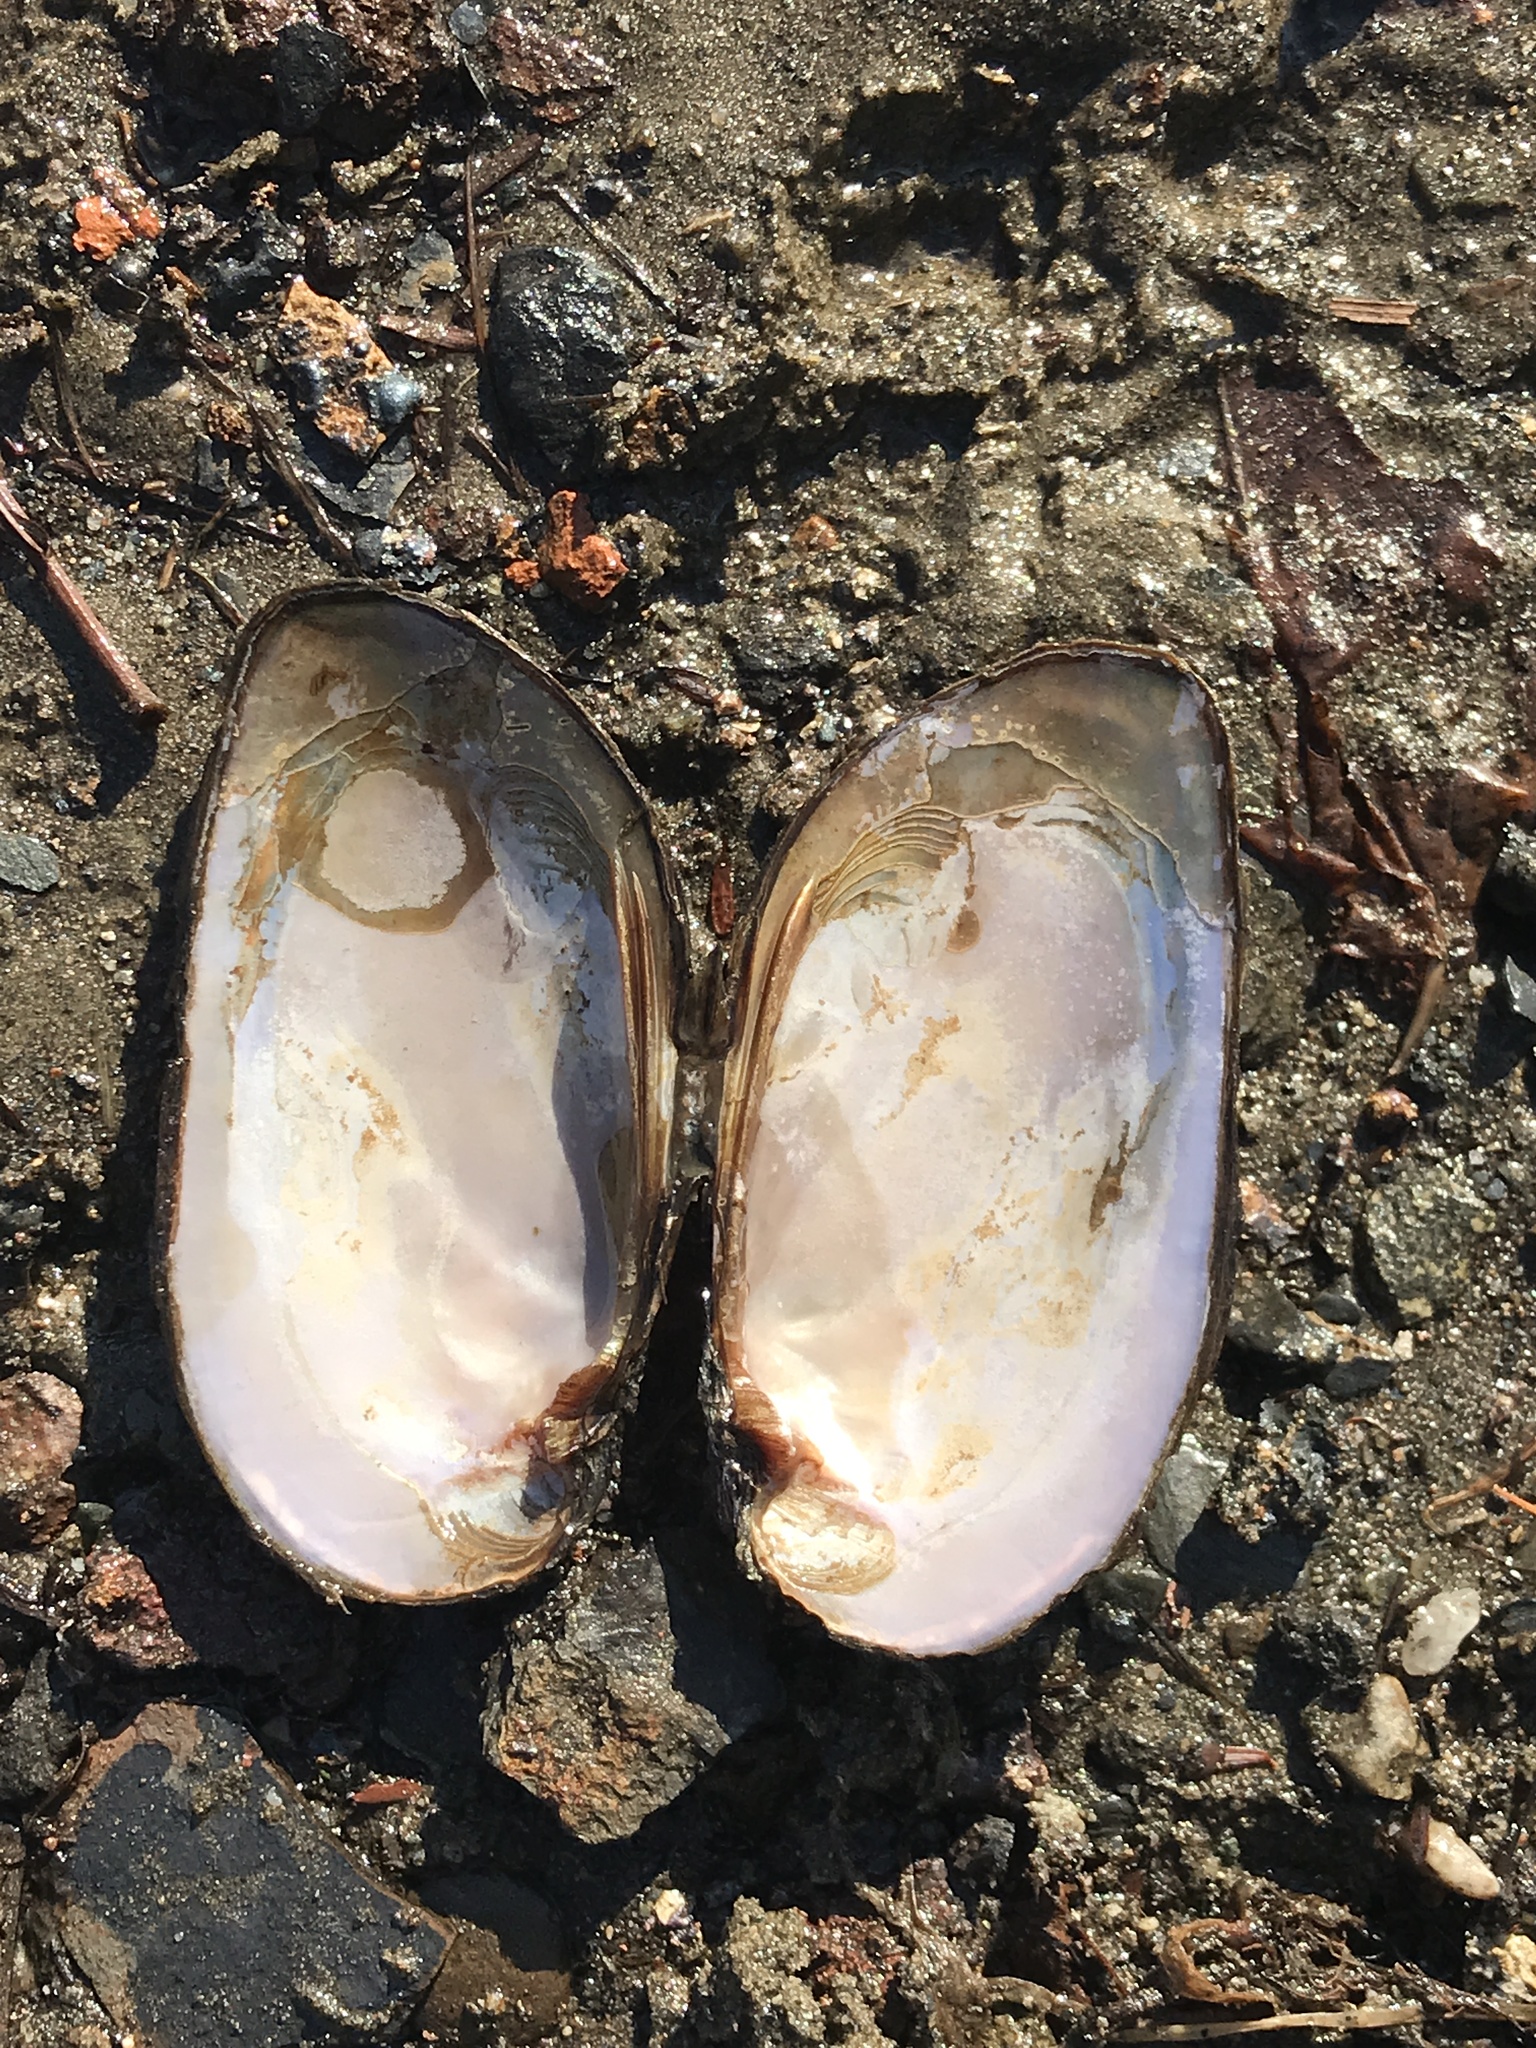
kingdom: Animalia
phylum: Mollusca
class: Bivalvia
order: Unionida
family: Unionidae
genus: Elliptio
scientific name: Elliptio complanata
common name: Eastern elliptio
